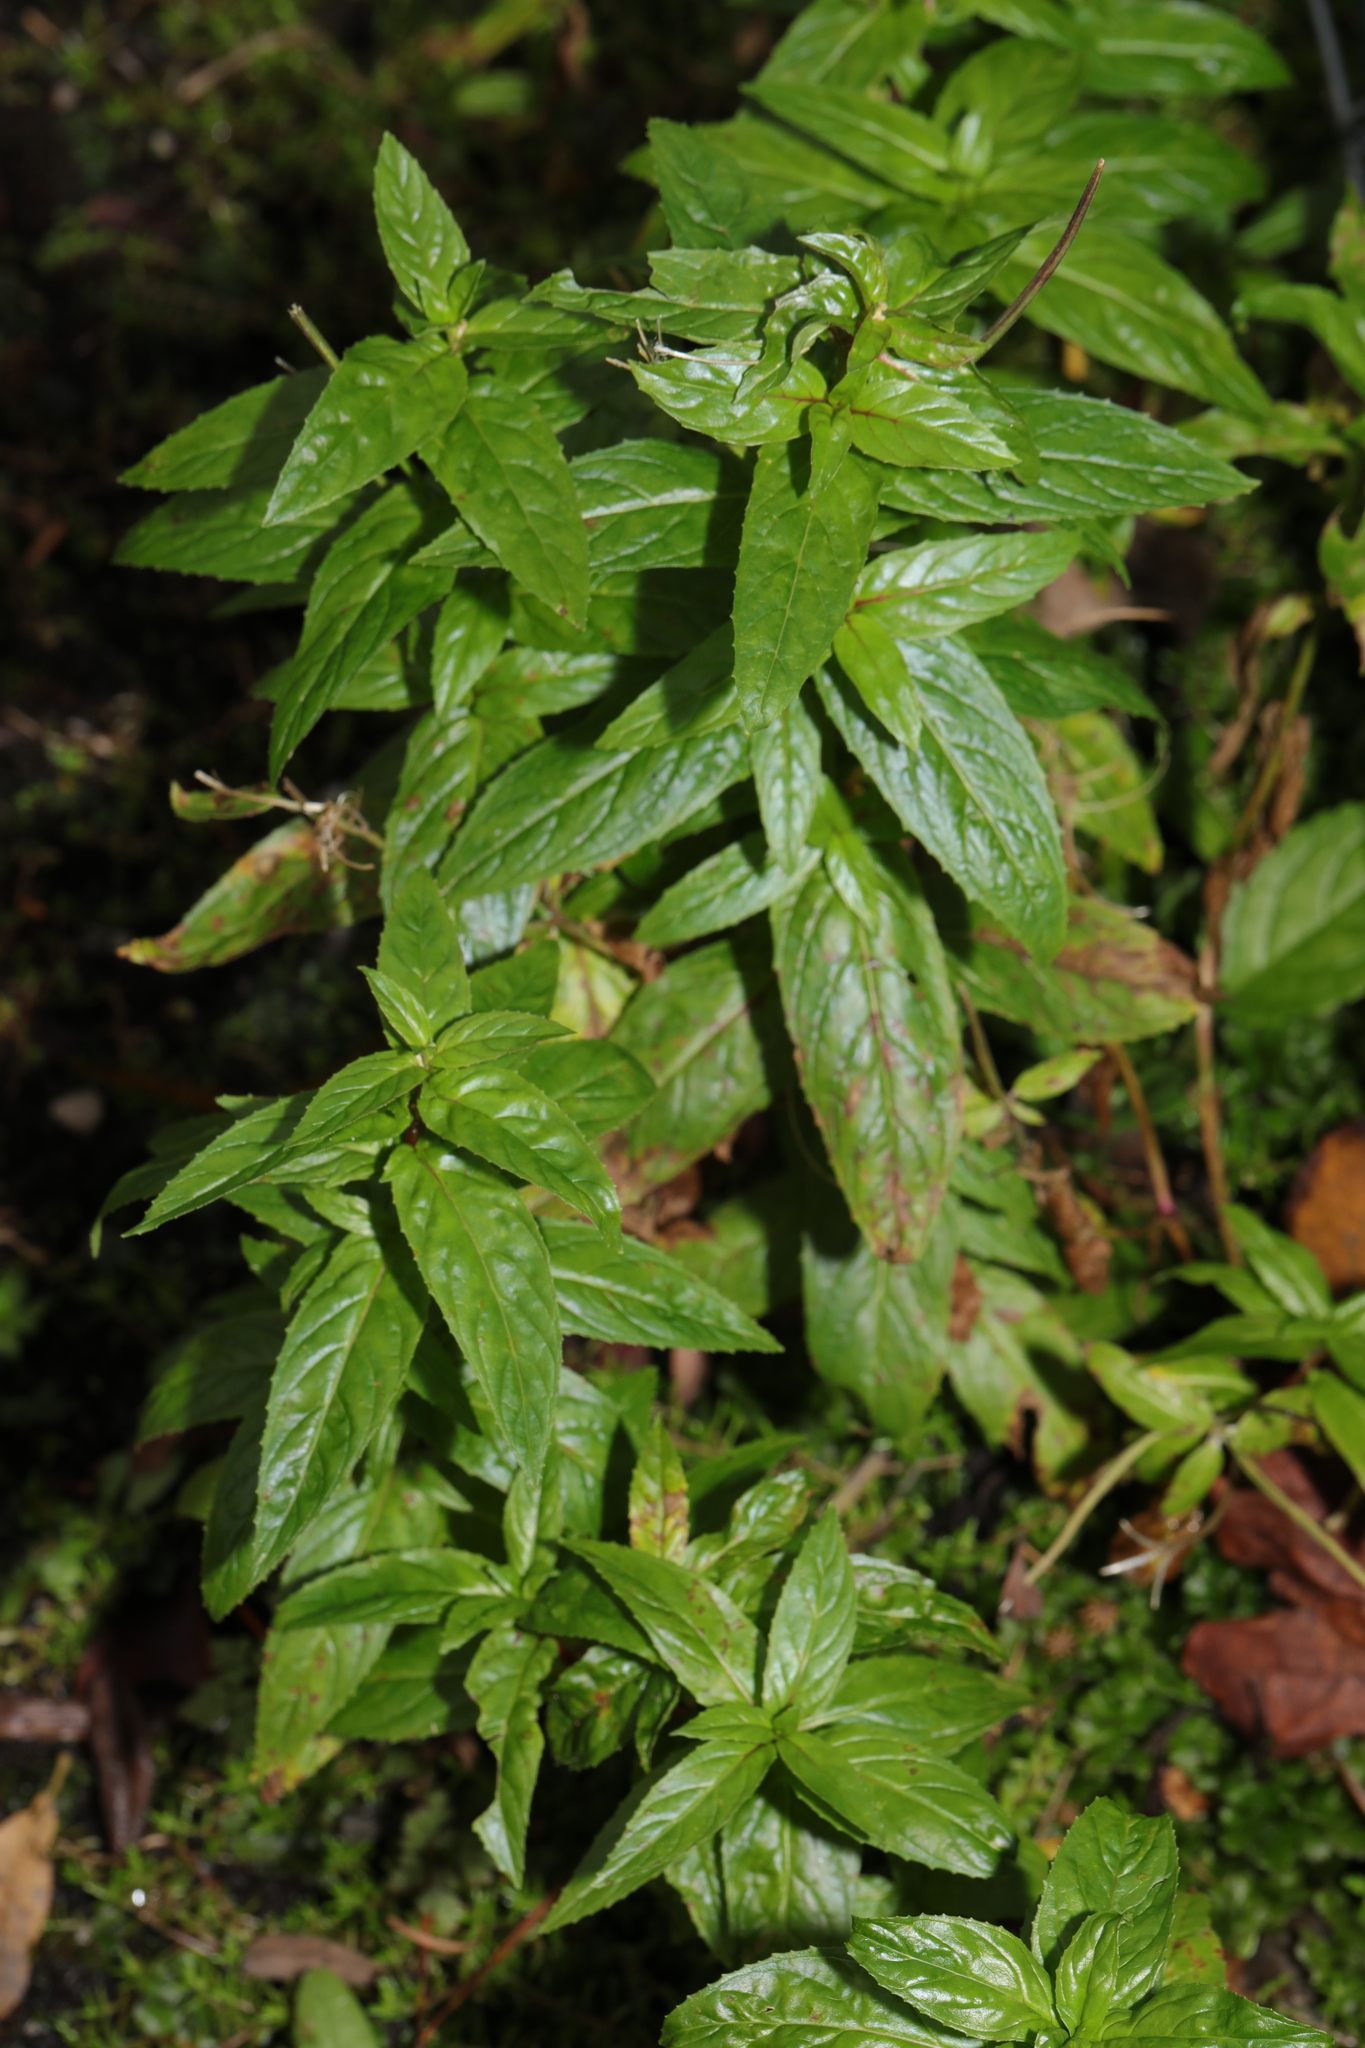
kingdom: Plantae
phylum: Tracheophyta
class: Magnoliopsida
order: Myrtales
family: Onagraceae
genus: Epilobium
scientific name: Epilobium
